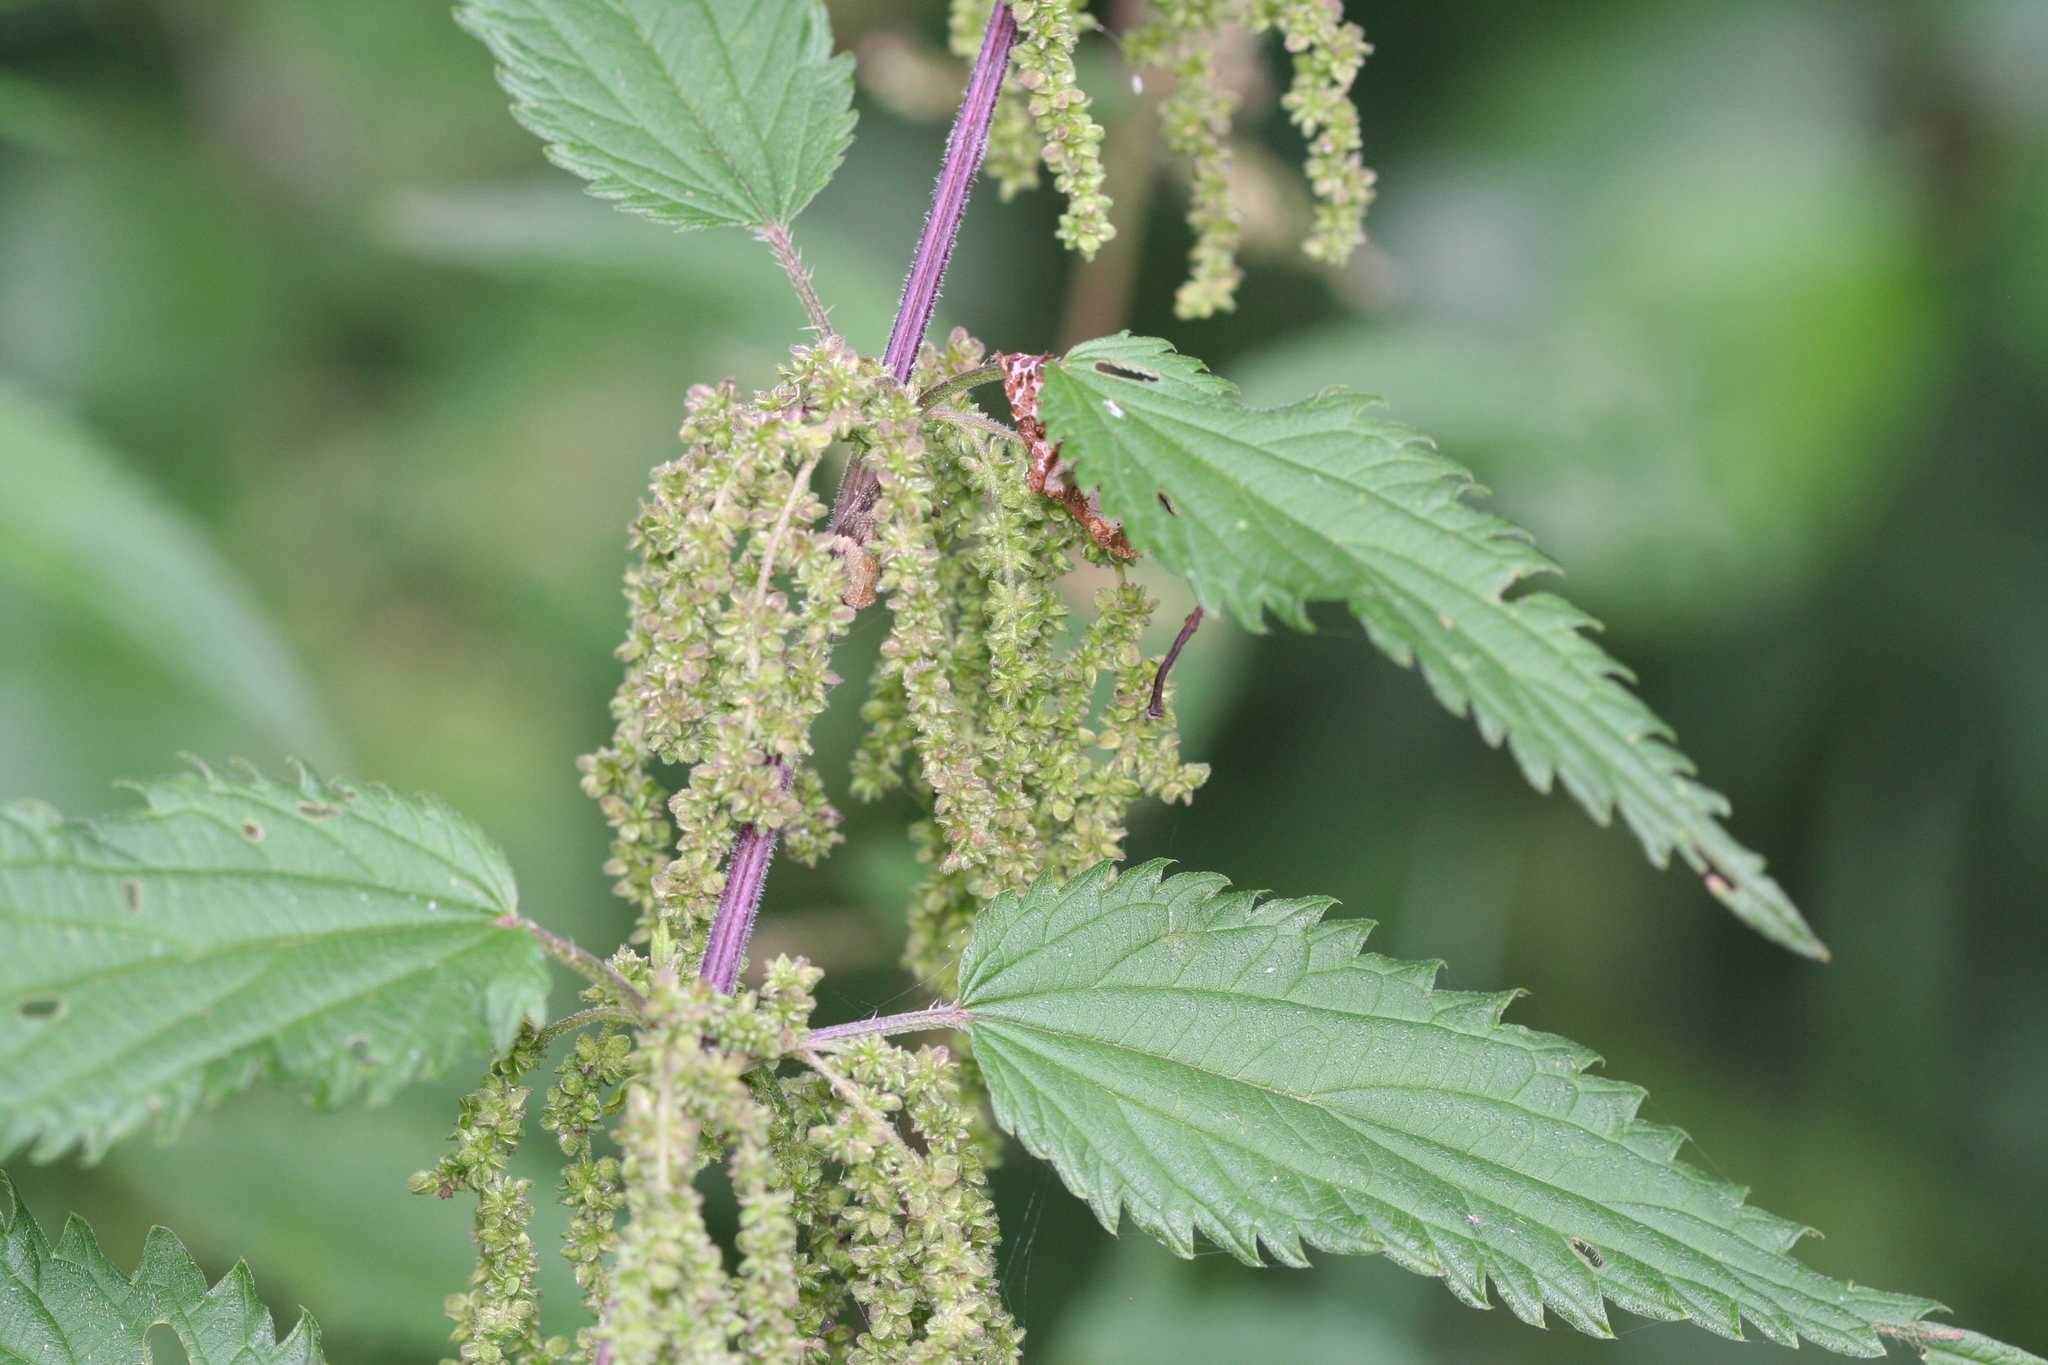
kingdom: Plantae
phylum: Tracheophyta
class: Magnoliopsida
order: Rosales
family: Urticaceae
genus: Urtica
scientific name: Urtica dioica
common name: Common nettle
